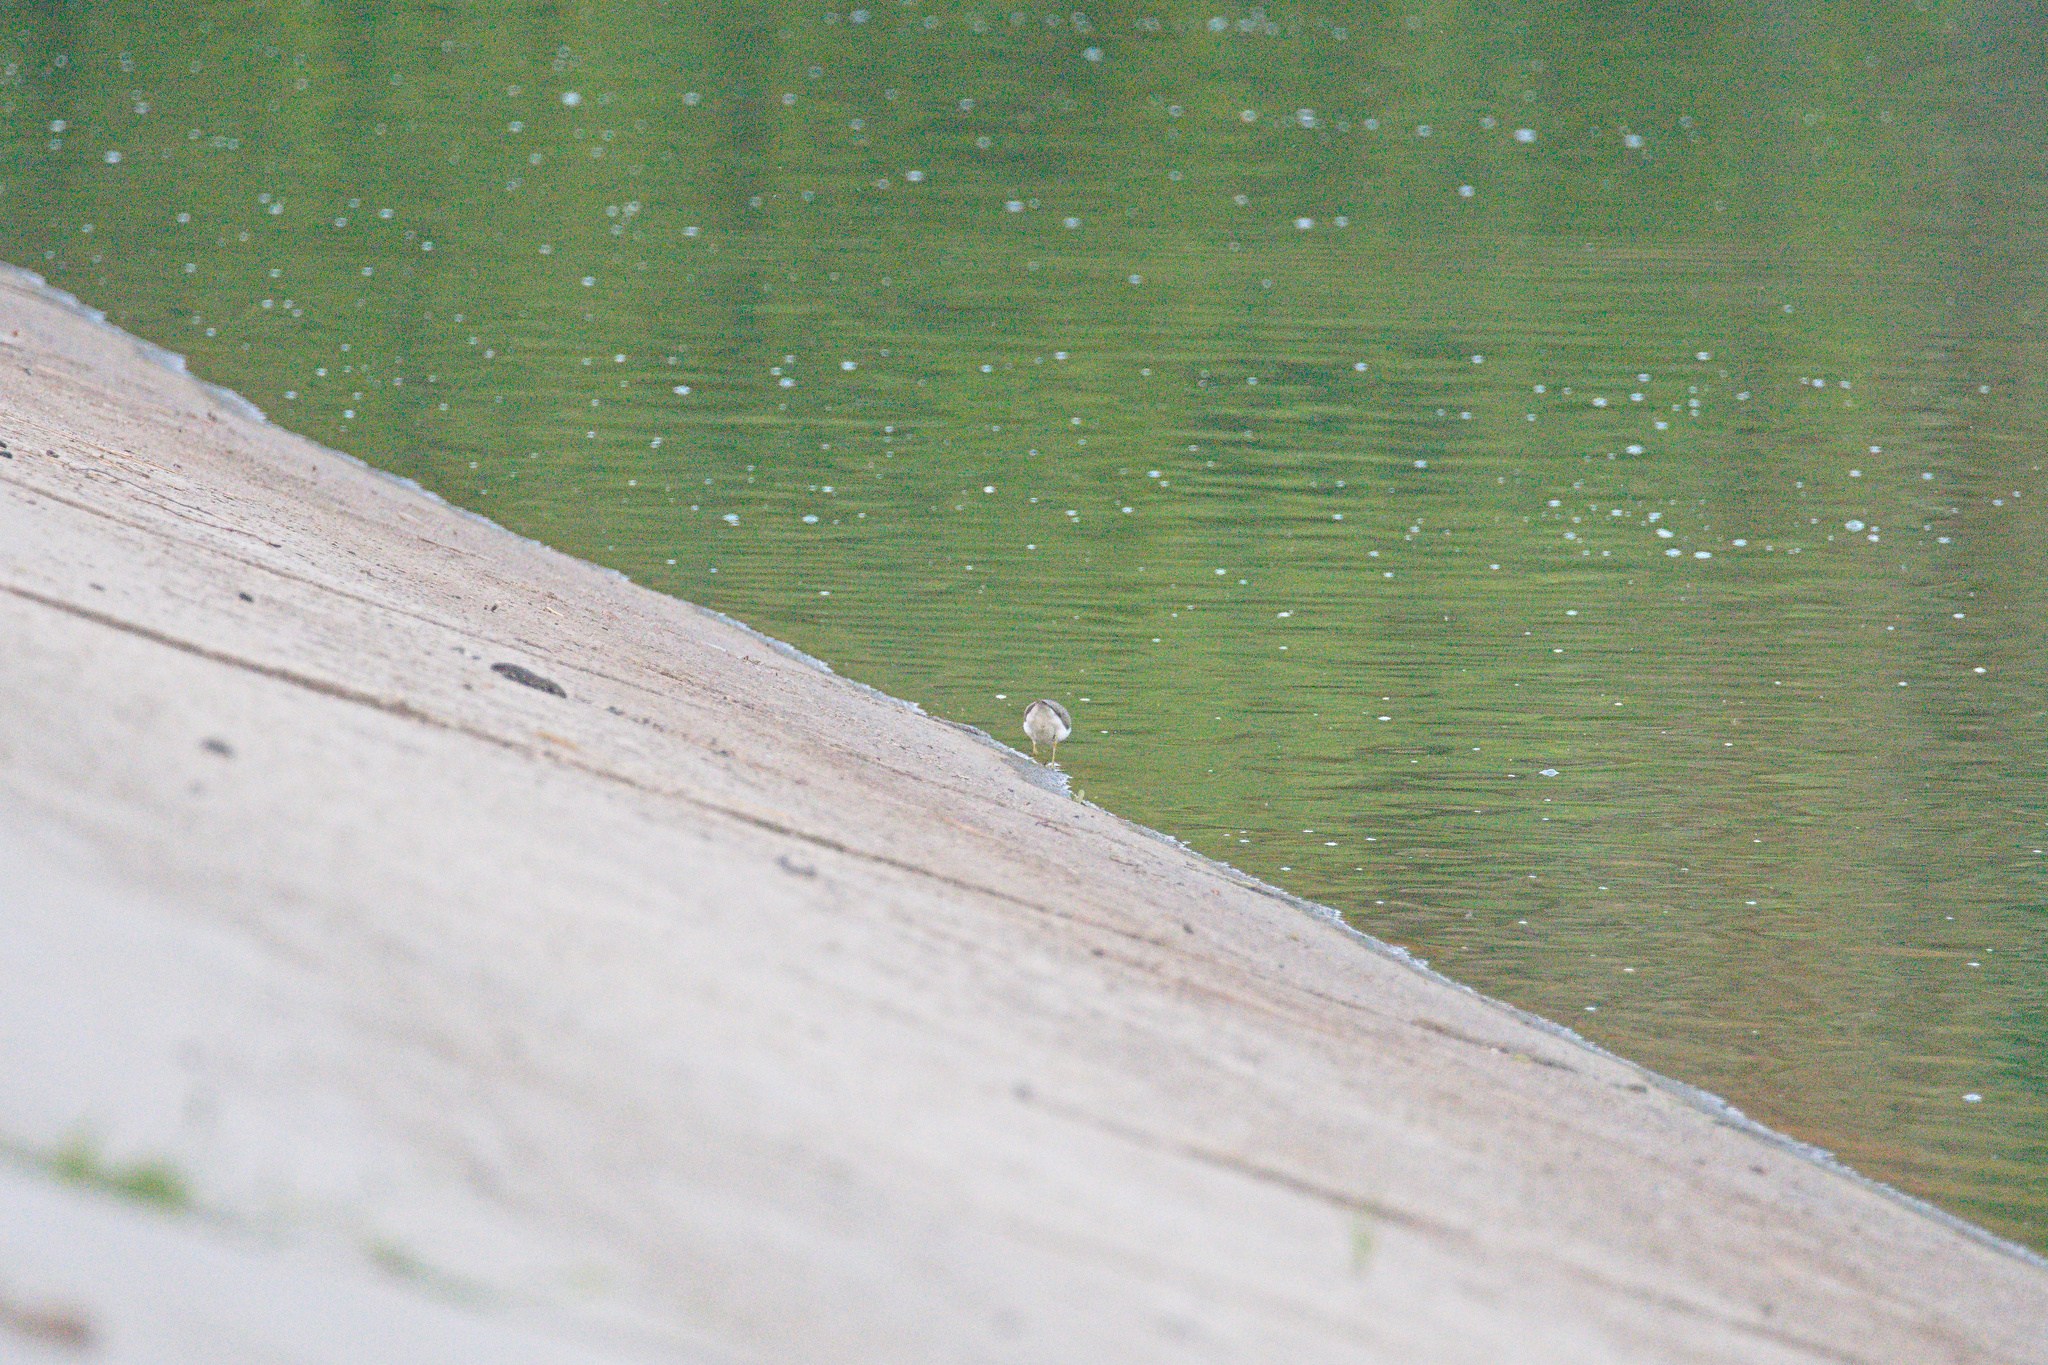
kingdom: Animalia
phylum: Chordata
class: Aves
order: Charadriiformes
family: Scolopacidae
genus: Actitis
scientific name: Actitis hypoleucos
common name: Common sandpiper
